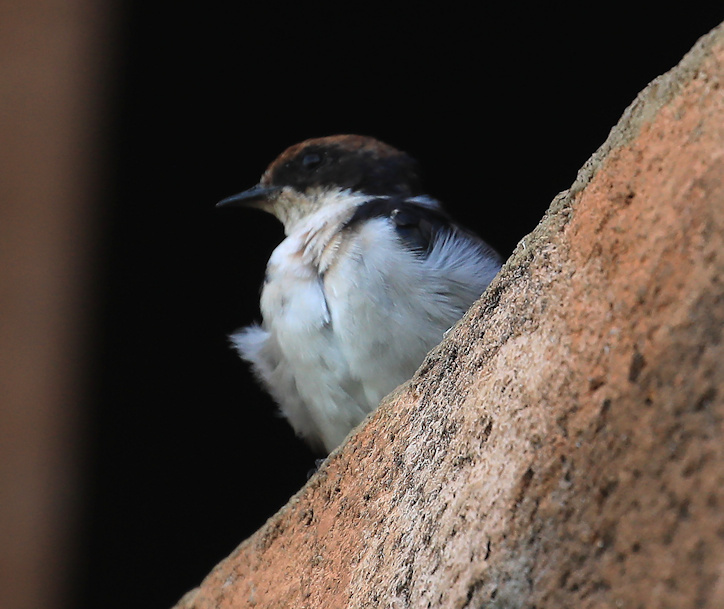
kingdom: Animalia
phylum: Chordata
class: Aves
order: Passeriformes
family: Hirundinidae
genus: Hirundo
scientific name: Hirundo smithii
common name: Wire-tailed swallow
